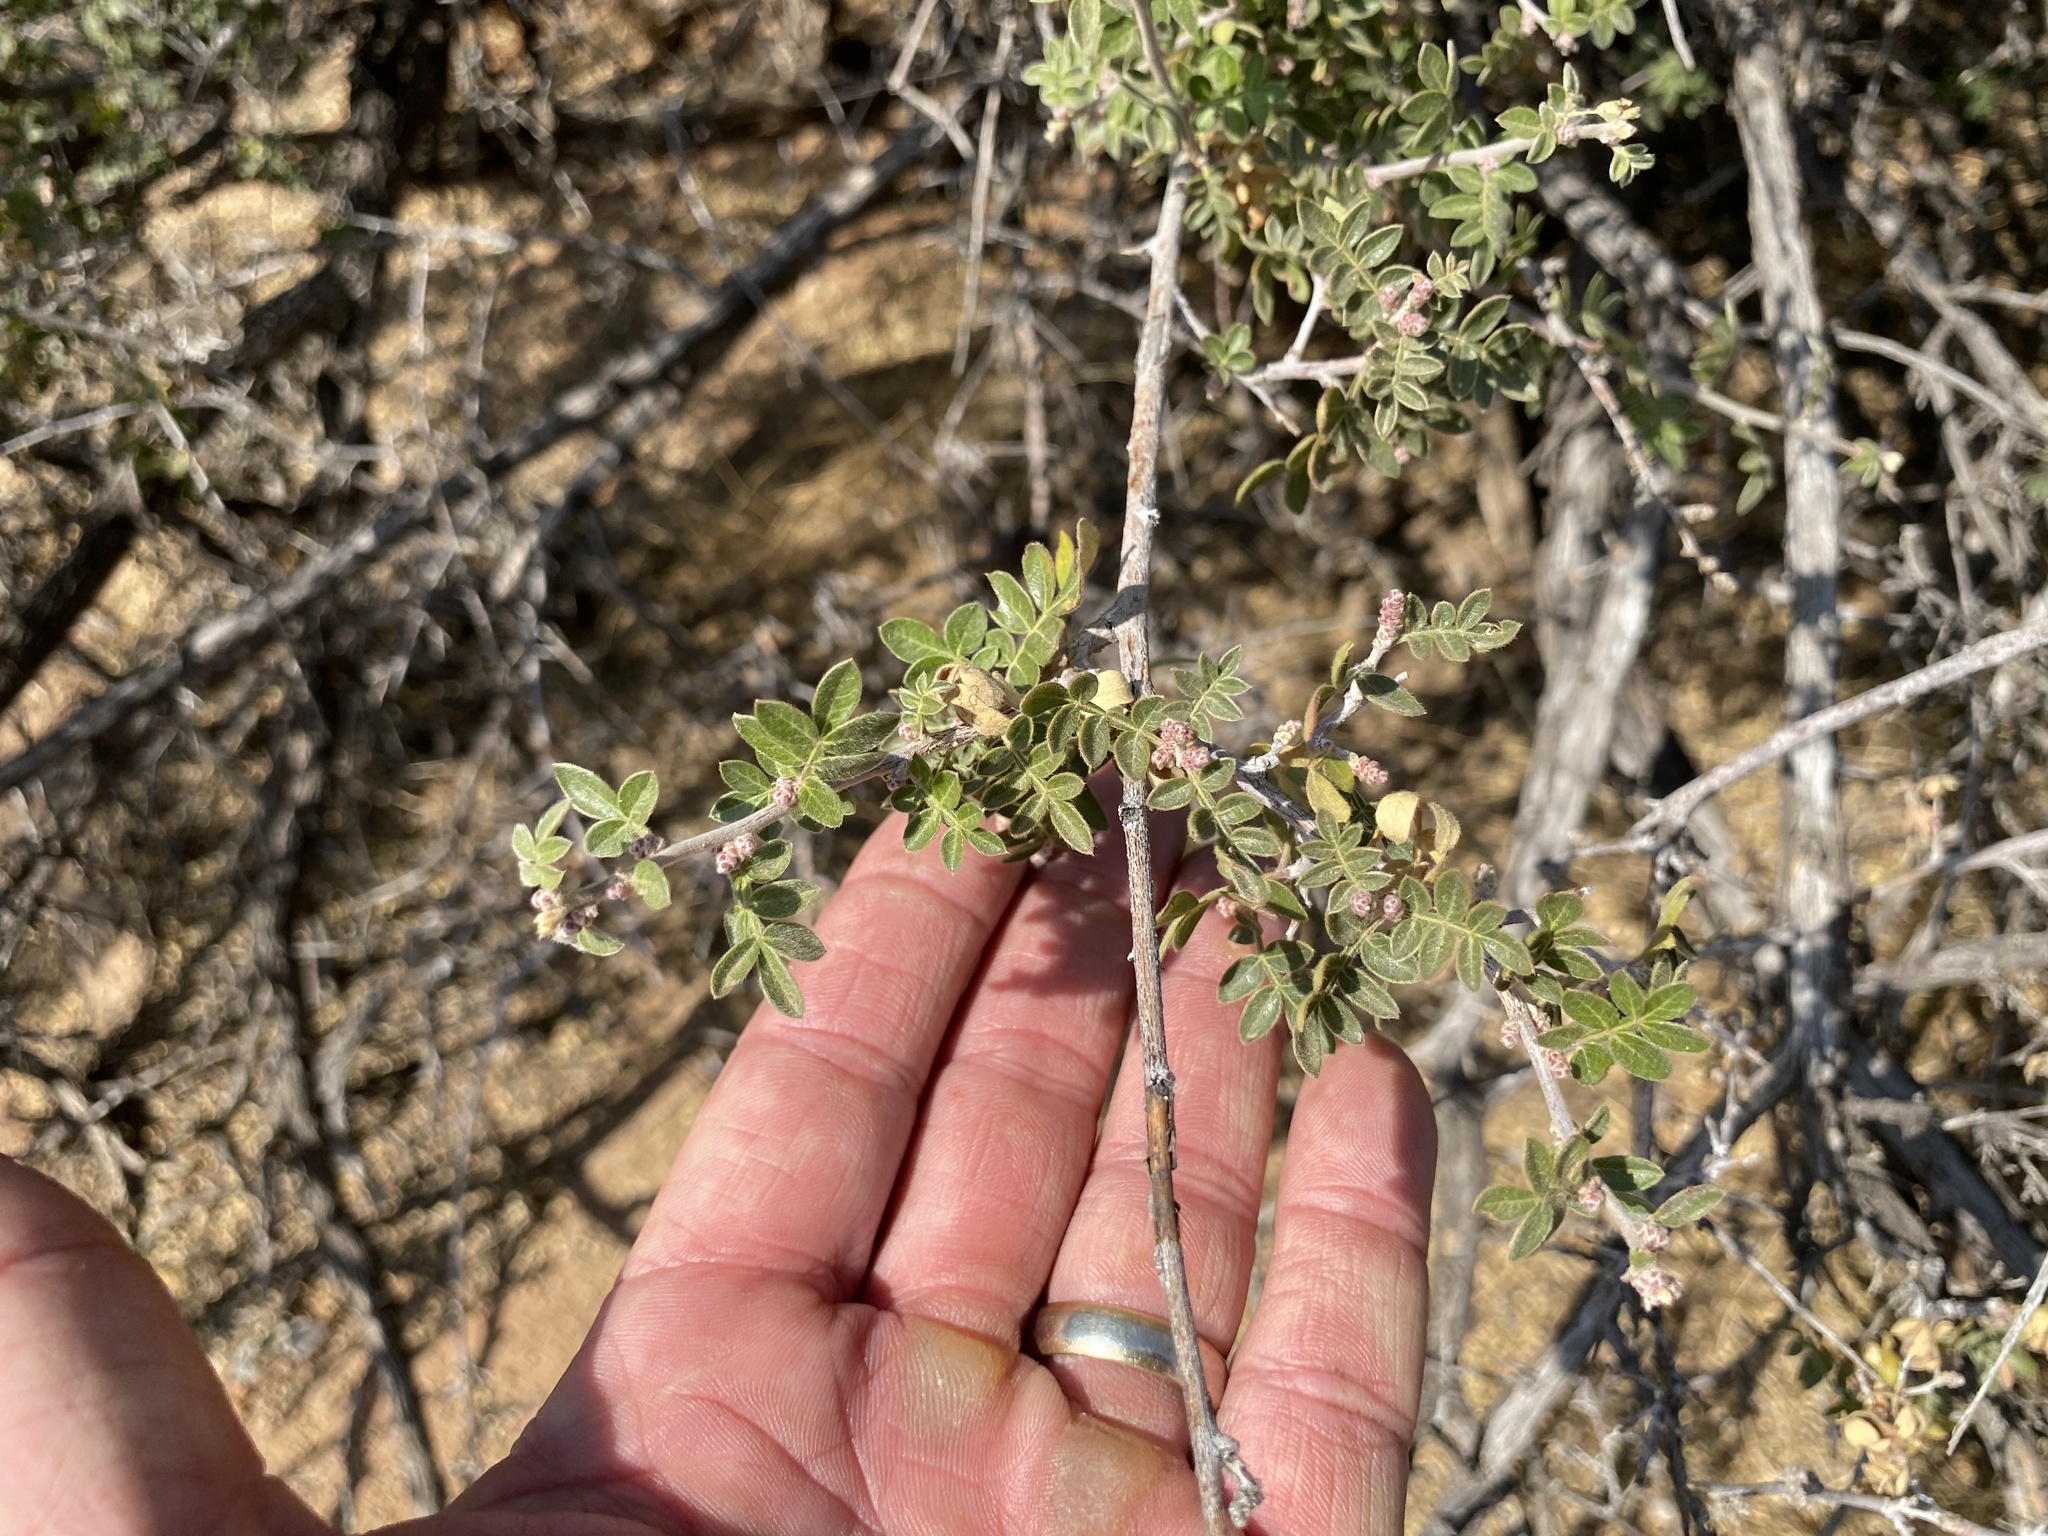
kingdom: Plantae
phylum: Tracheophyta
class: Magnoliopsida
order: Sapindales
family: Anacardiaceae
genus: Rhus
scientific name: Rhus microphylla
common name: Desert sumac
